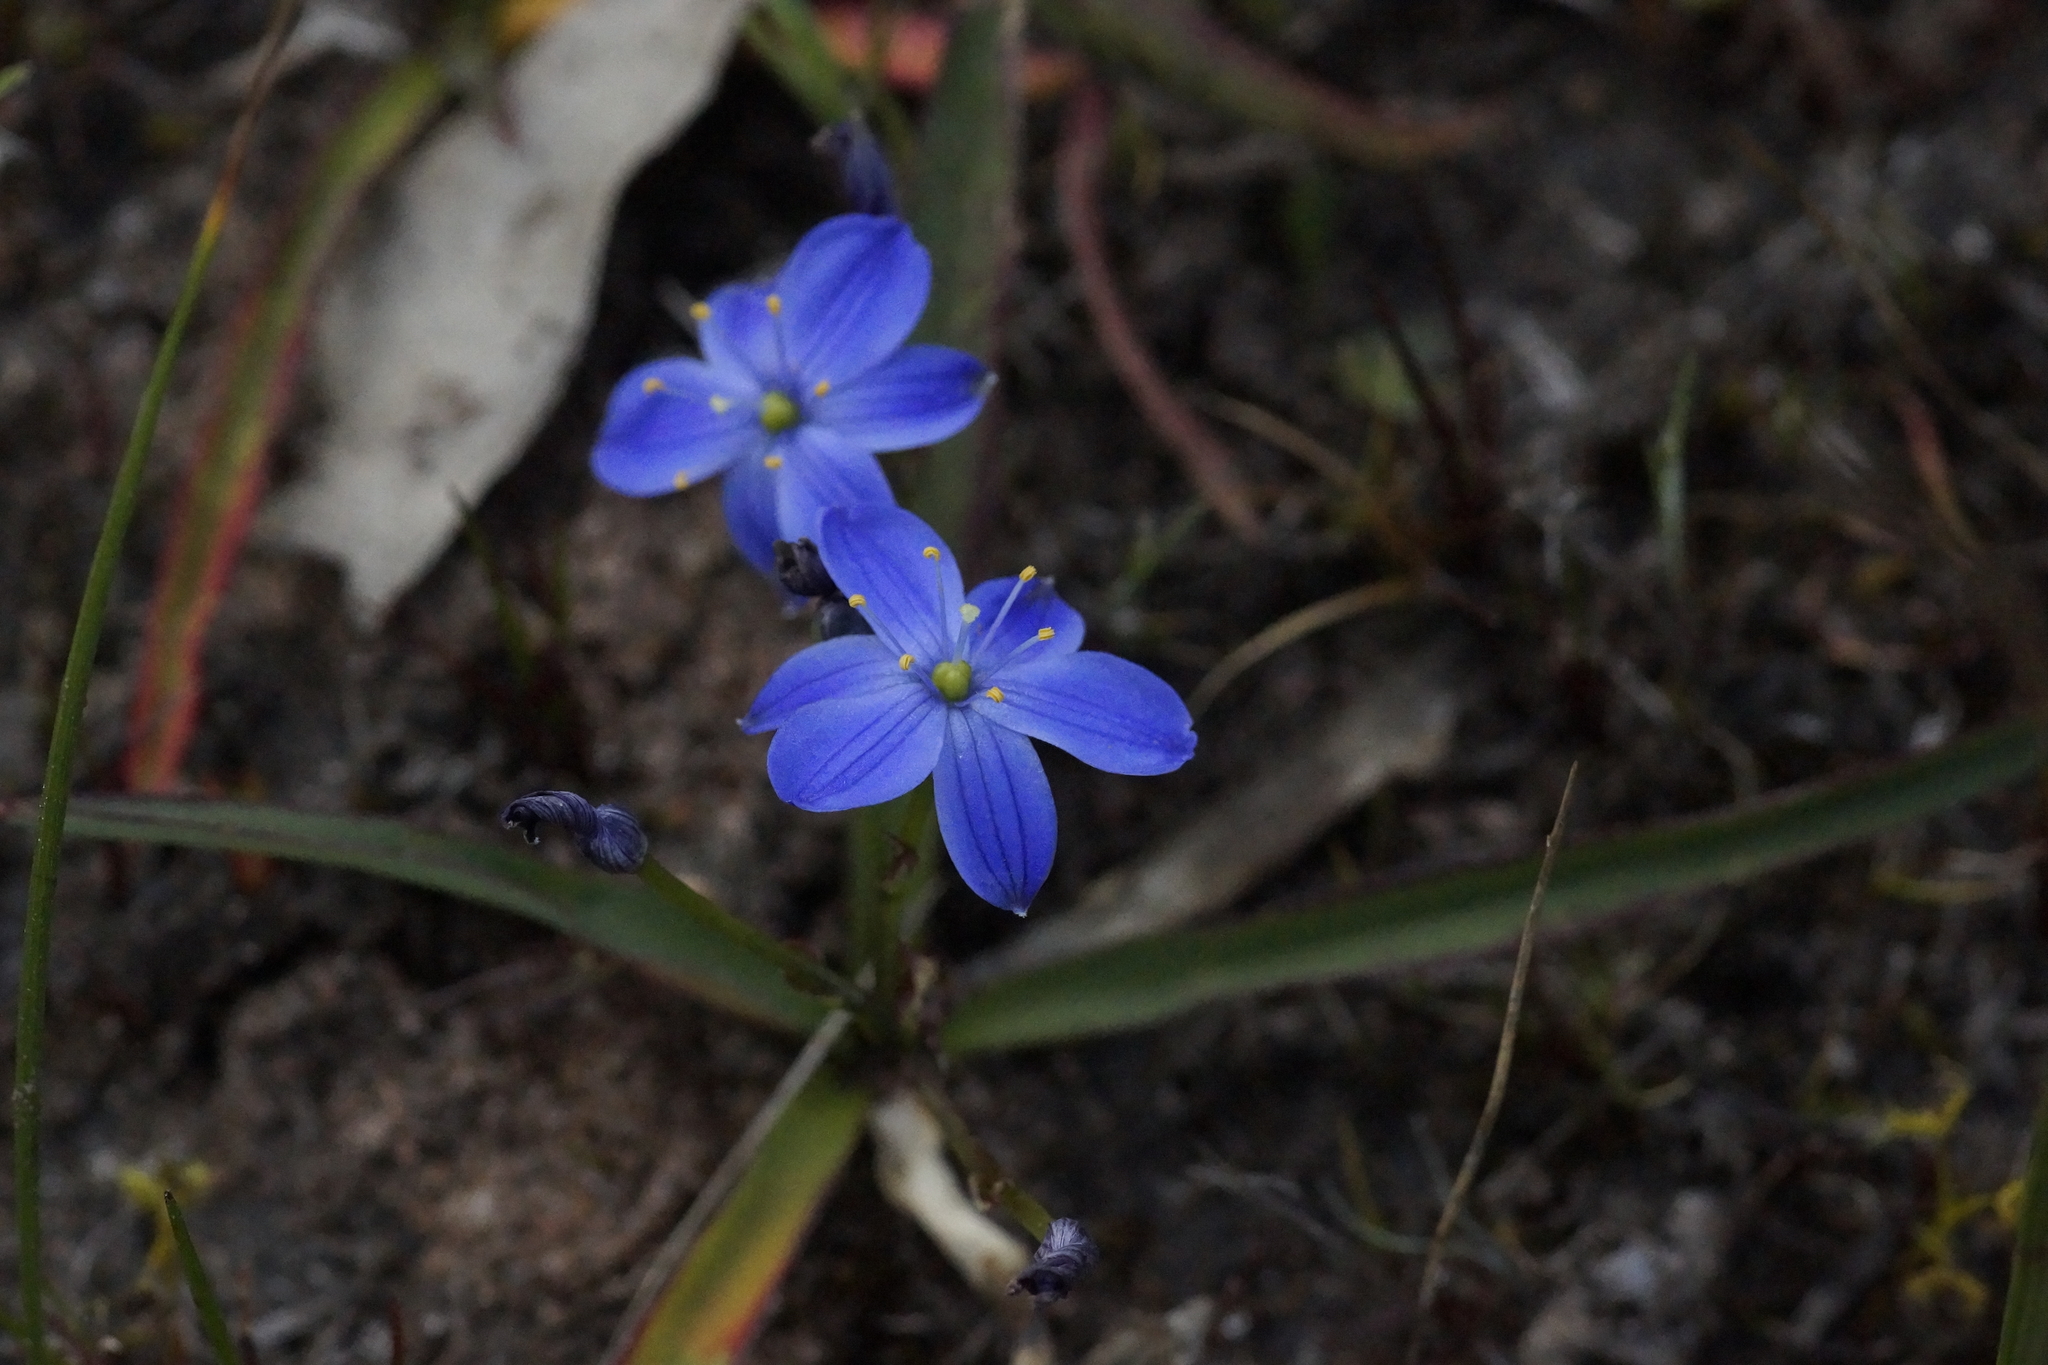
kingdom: Plantae
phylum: Tracheophyta
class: Liliopsida
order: Asparagales
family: Asphodelaceae
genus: Chamaescilla
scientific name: Chamaescilla corymbosa
